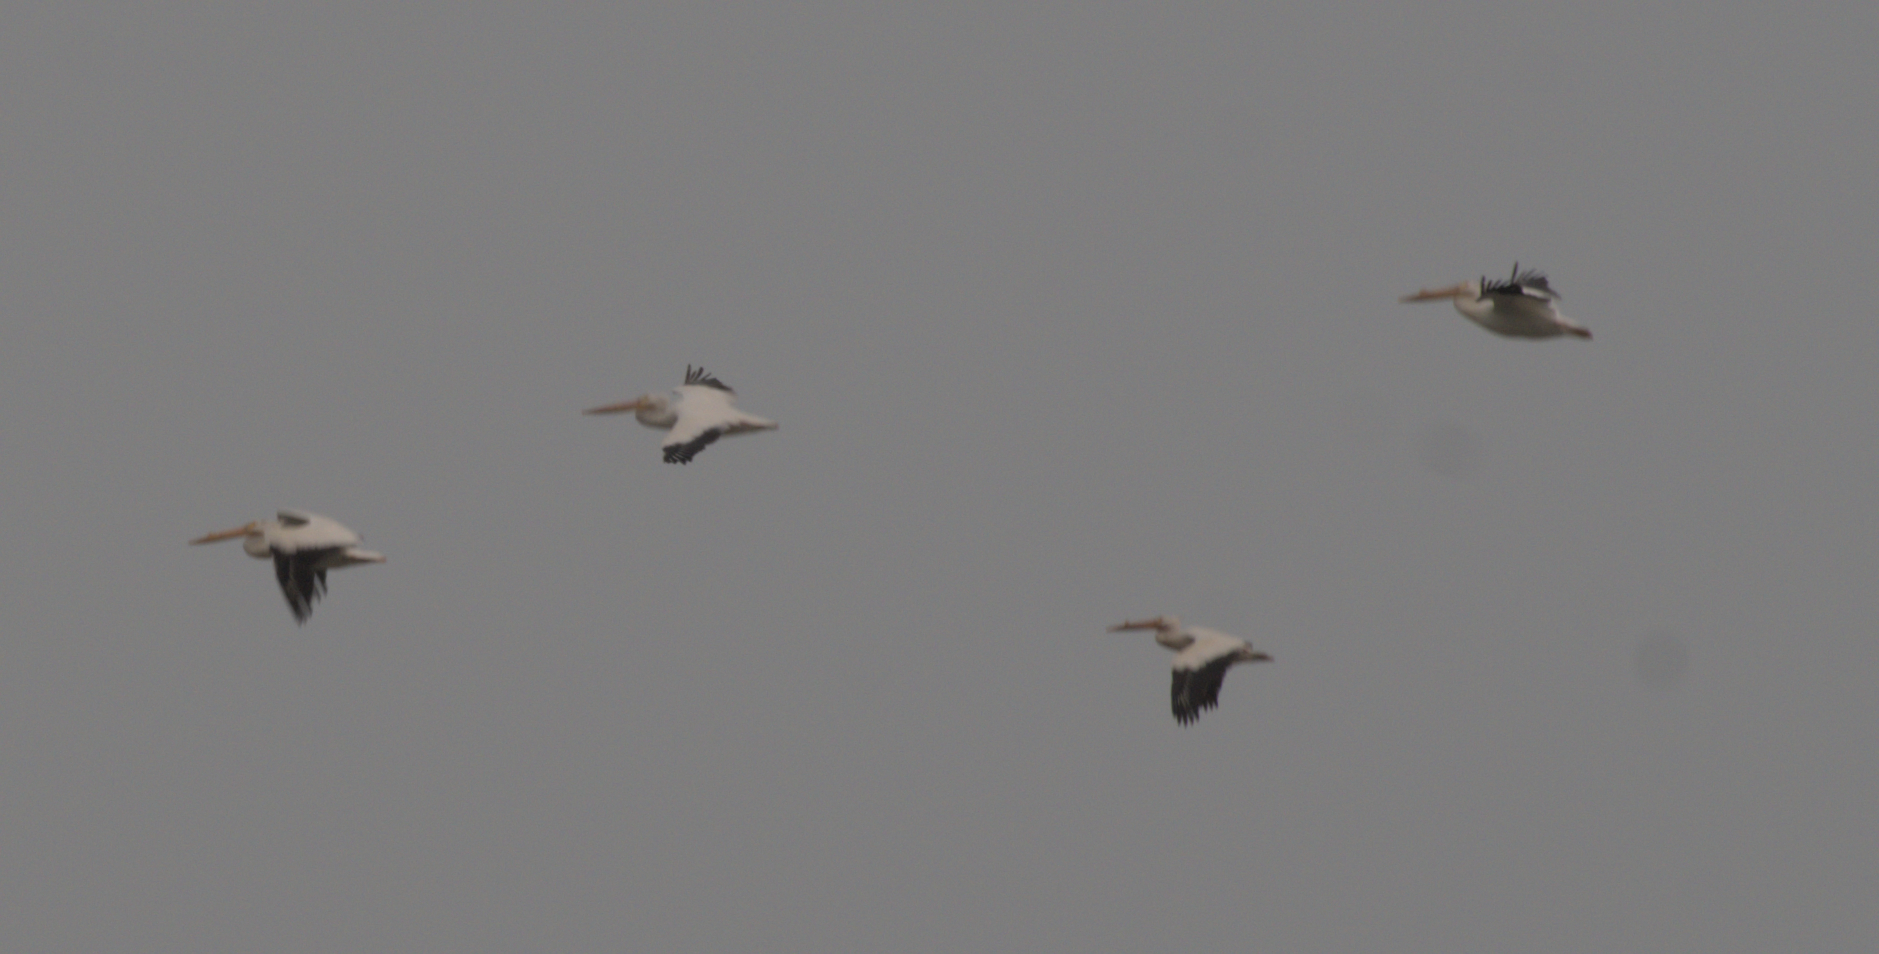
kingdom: Animalia
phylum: Chordata
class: Aves
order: Pelecaniformes
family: Pelecanidae
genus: Pelecanus
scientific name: Pelecanus erythrorhynchos
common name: American white pelican
